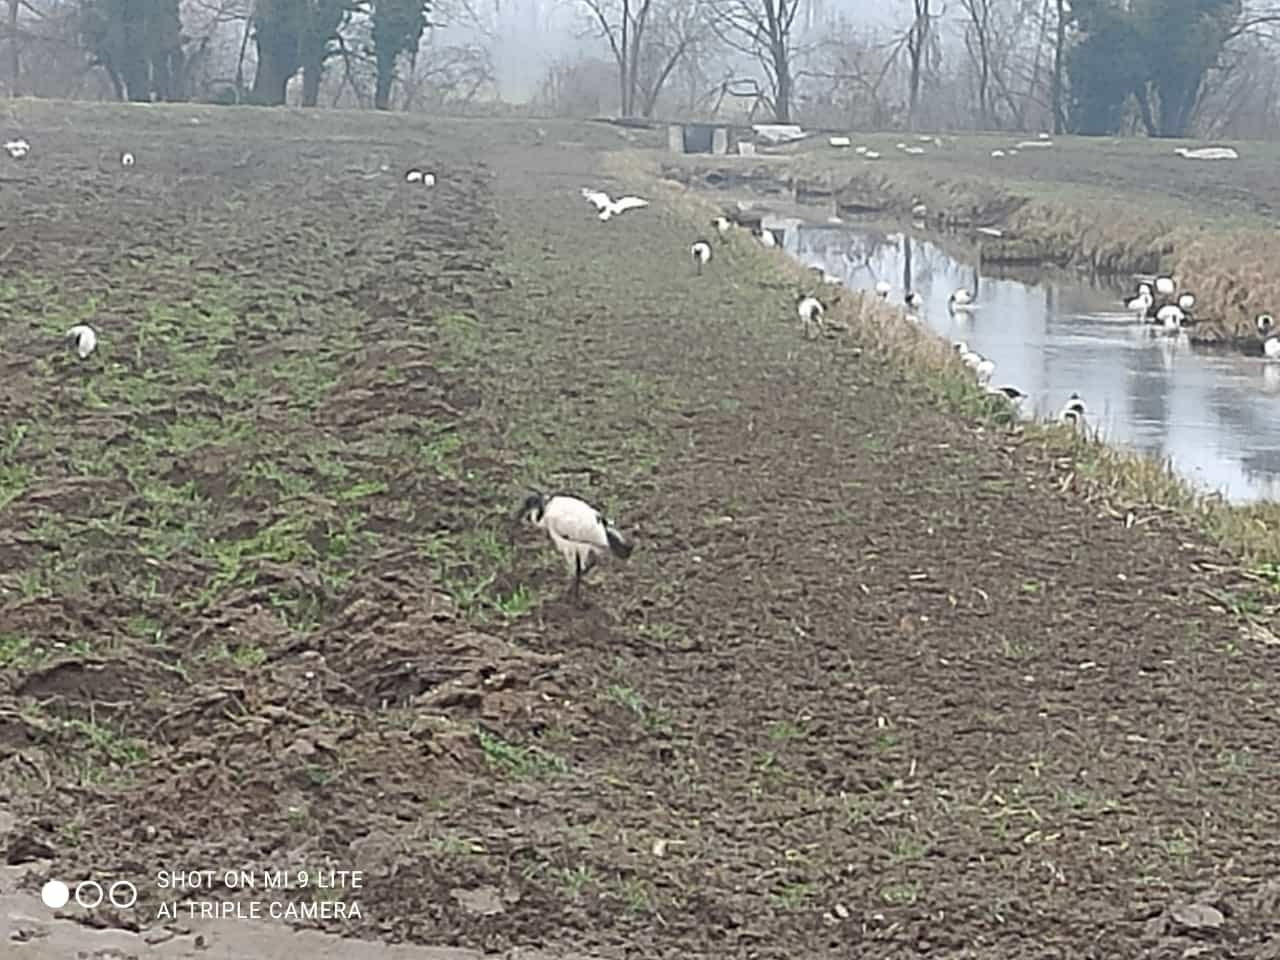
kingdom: Animalia
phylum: Chordata
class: Aves
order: Pelecaniformes
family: Threskiornithidae
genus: Threskiornis
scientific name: Threskiornis aethiopicus
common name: Sacred ibis
